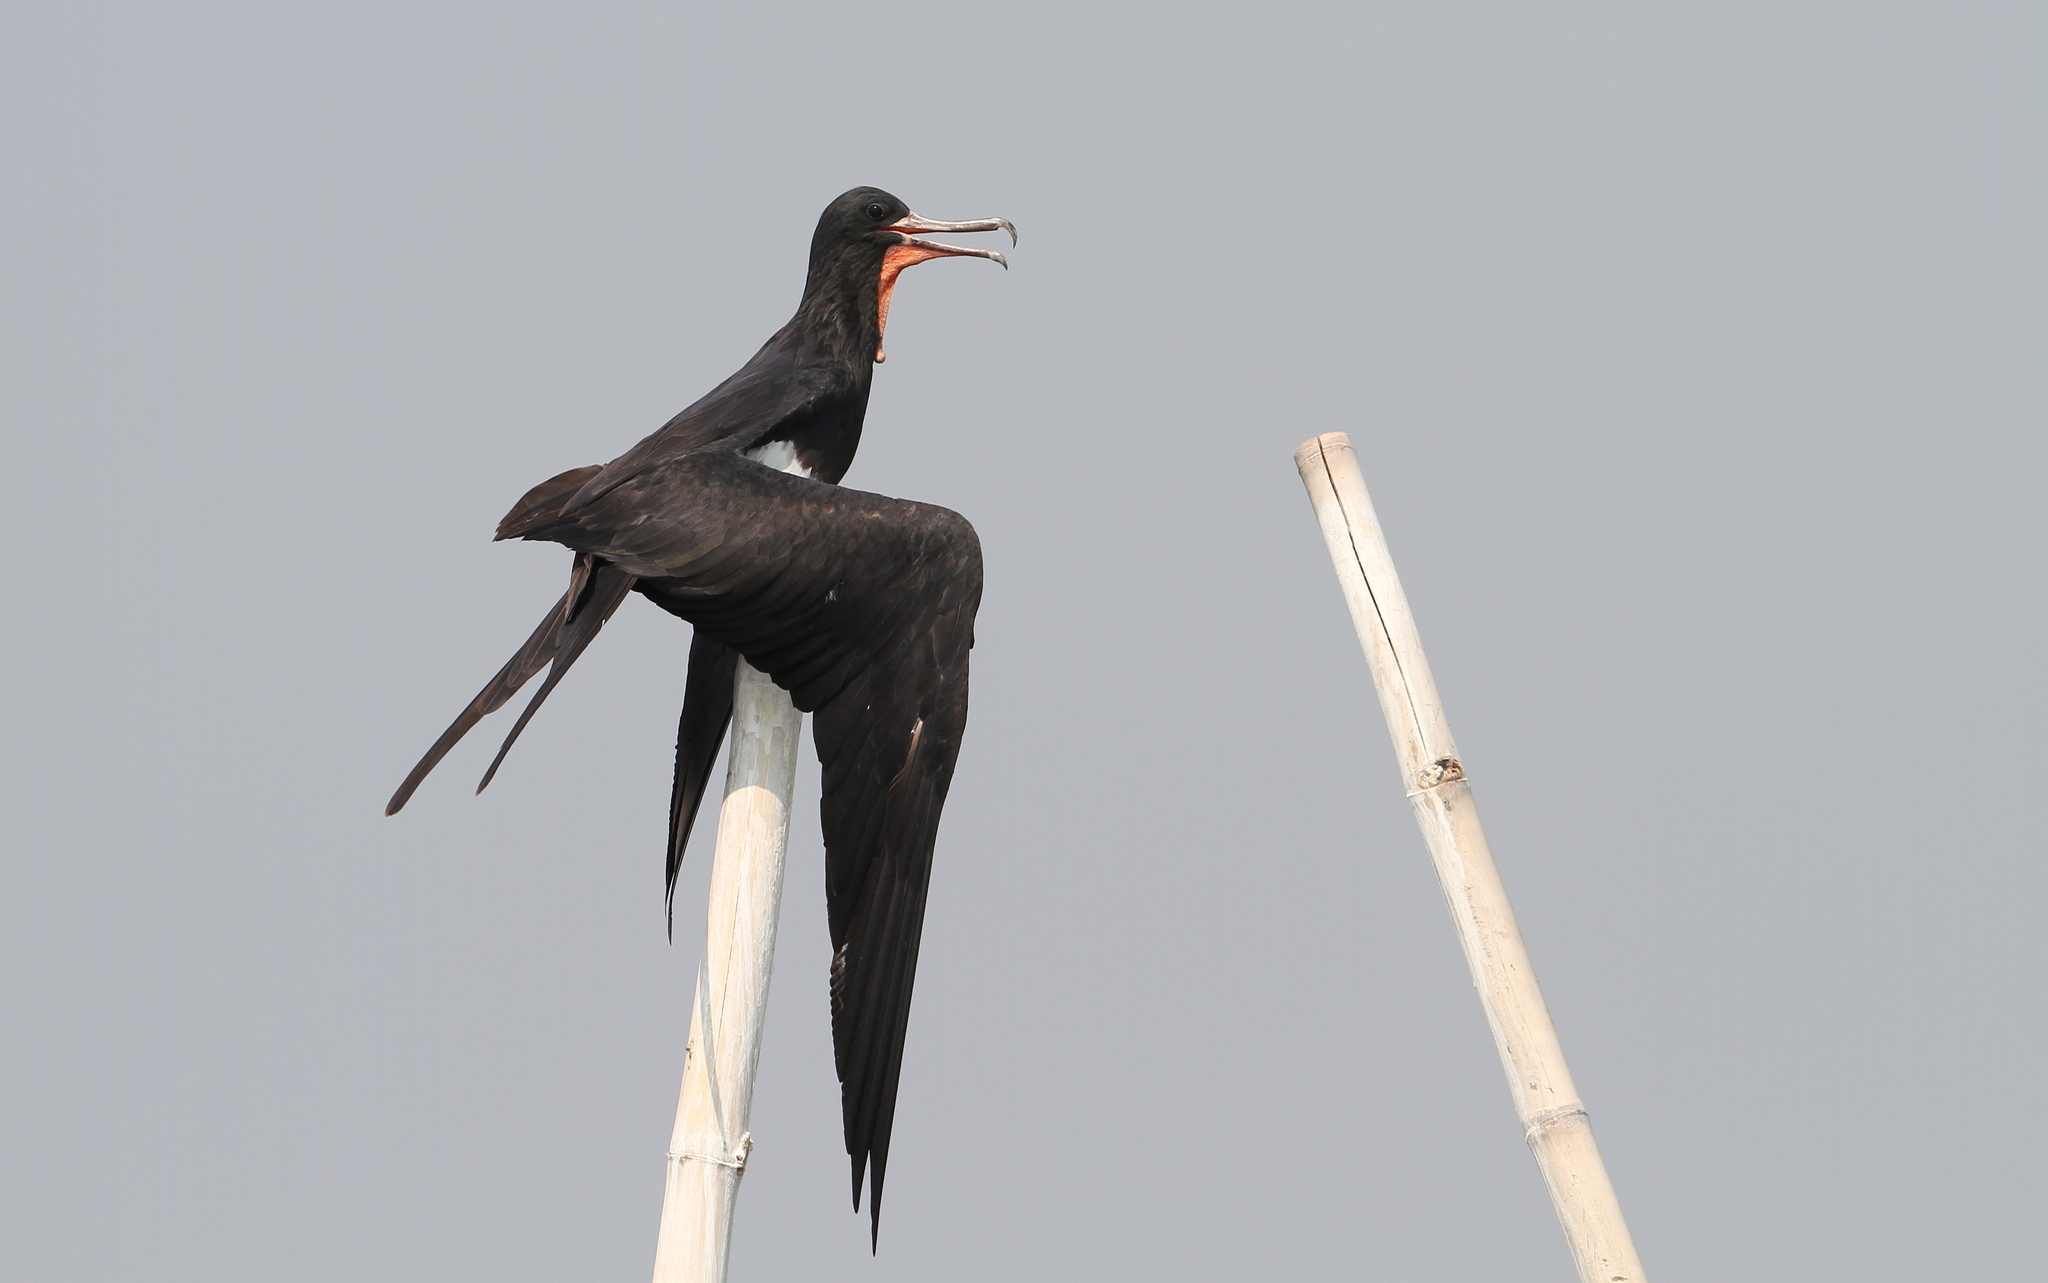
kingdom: Animalia
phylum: Chordata
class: Aves
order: Suliformes
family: Fregatidae
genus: Fregata
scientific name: Fregata andrewsi
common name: Christmas frigatebird
